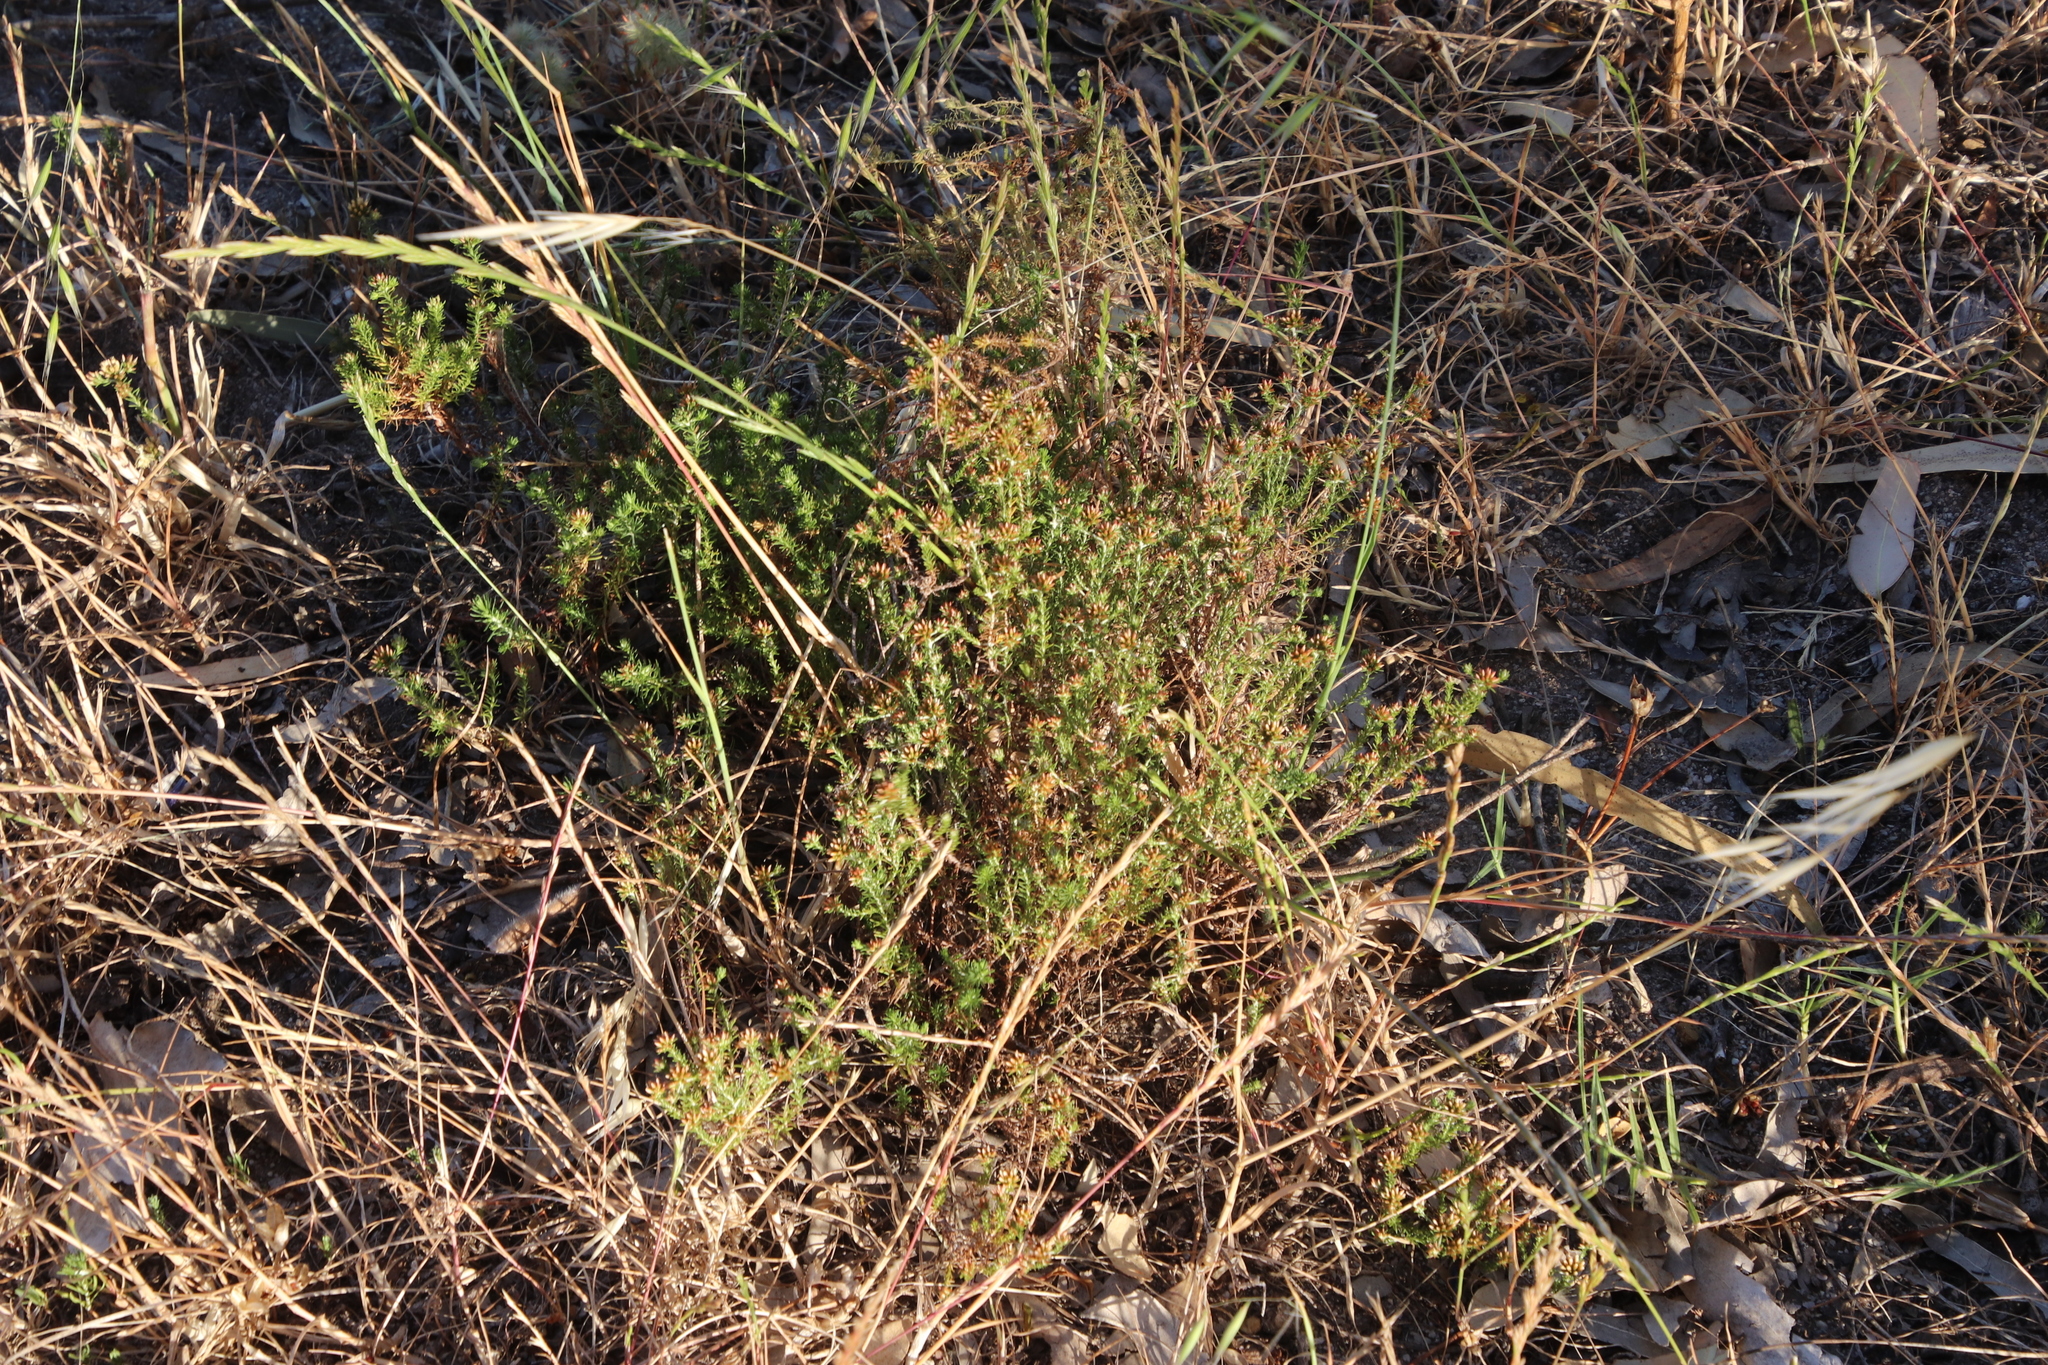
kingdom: Plantae
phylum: Tracheophyta
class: Magnoliopsida
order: Asterales
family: Asteraceae
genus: Helichrysum
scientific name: Helichrysum niveum
